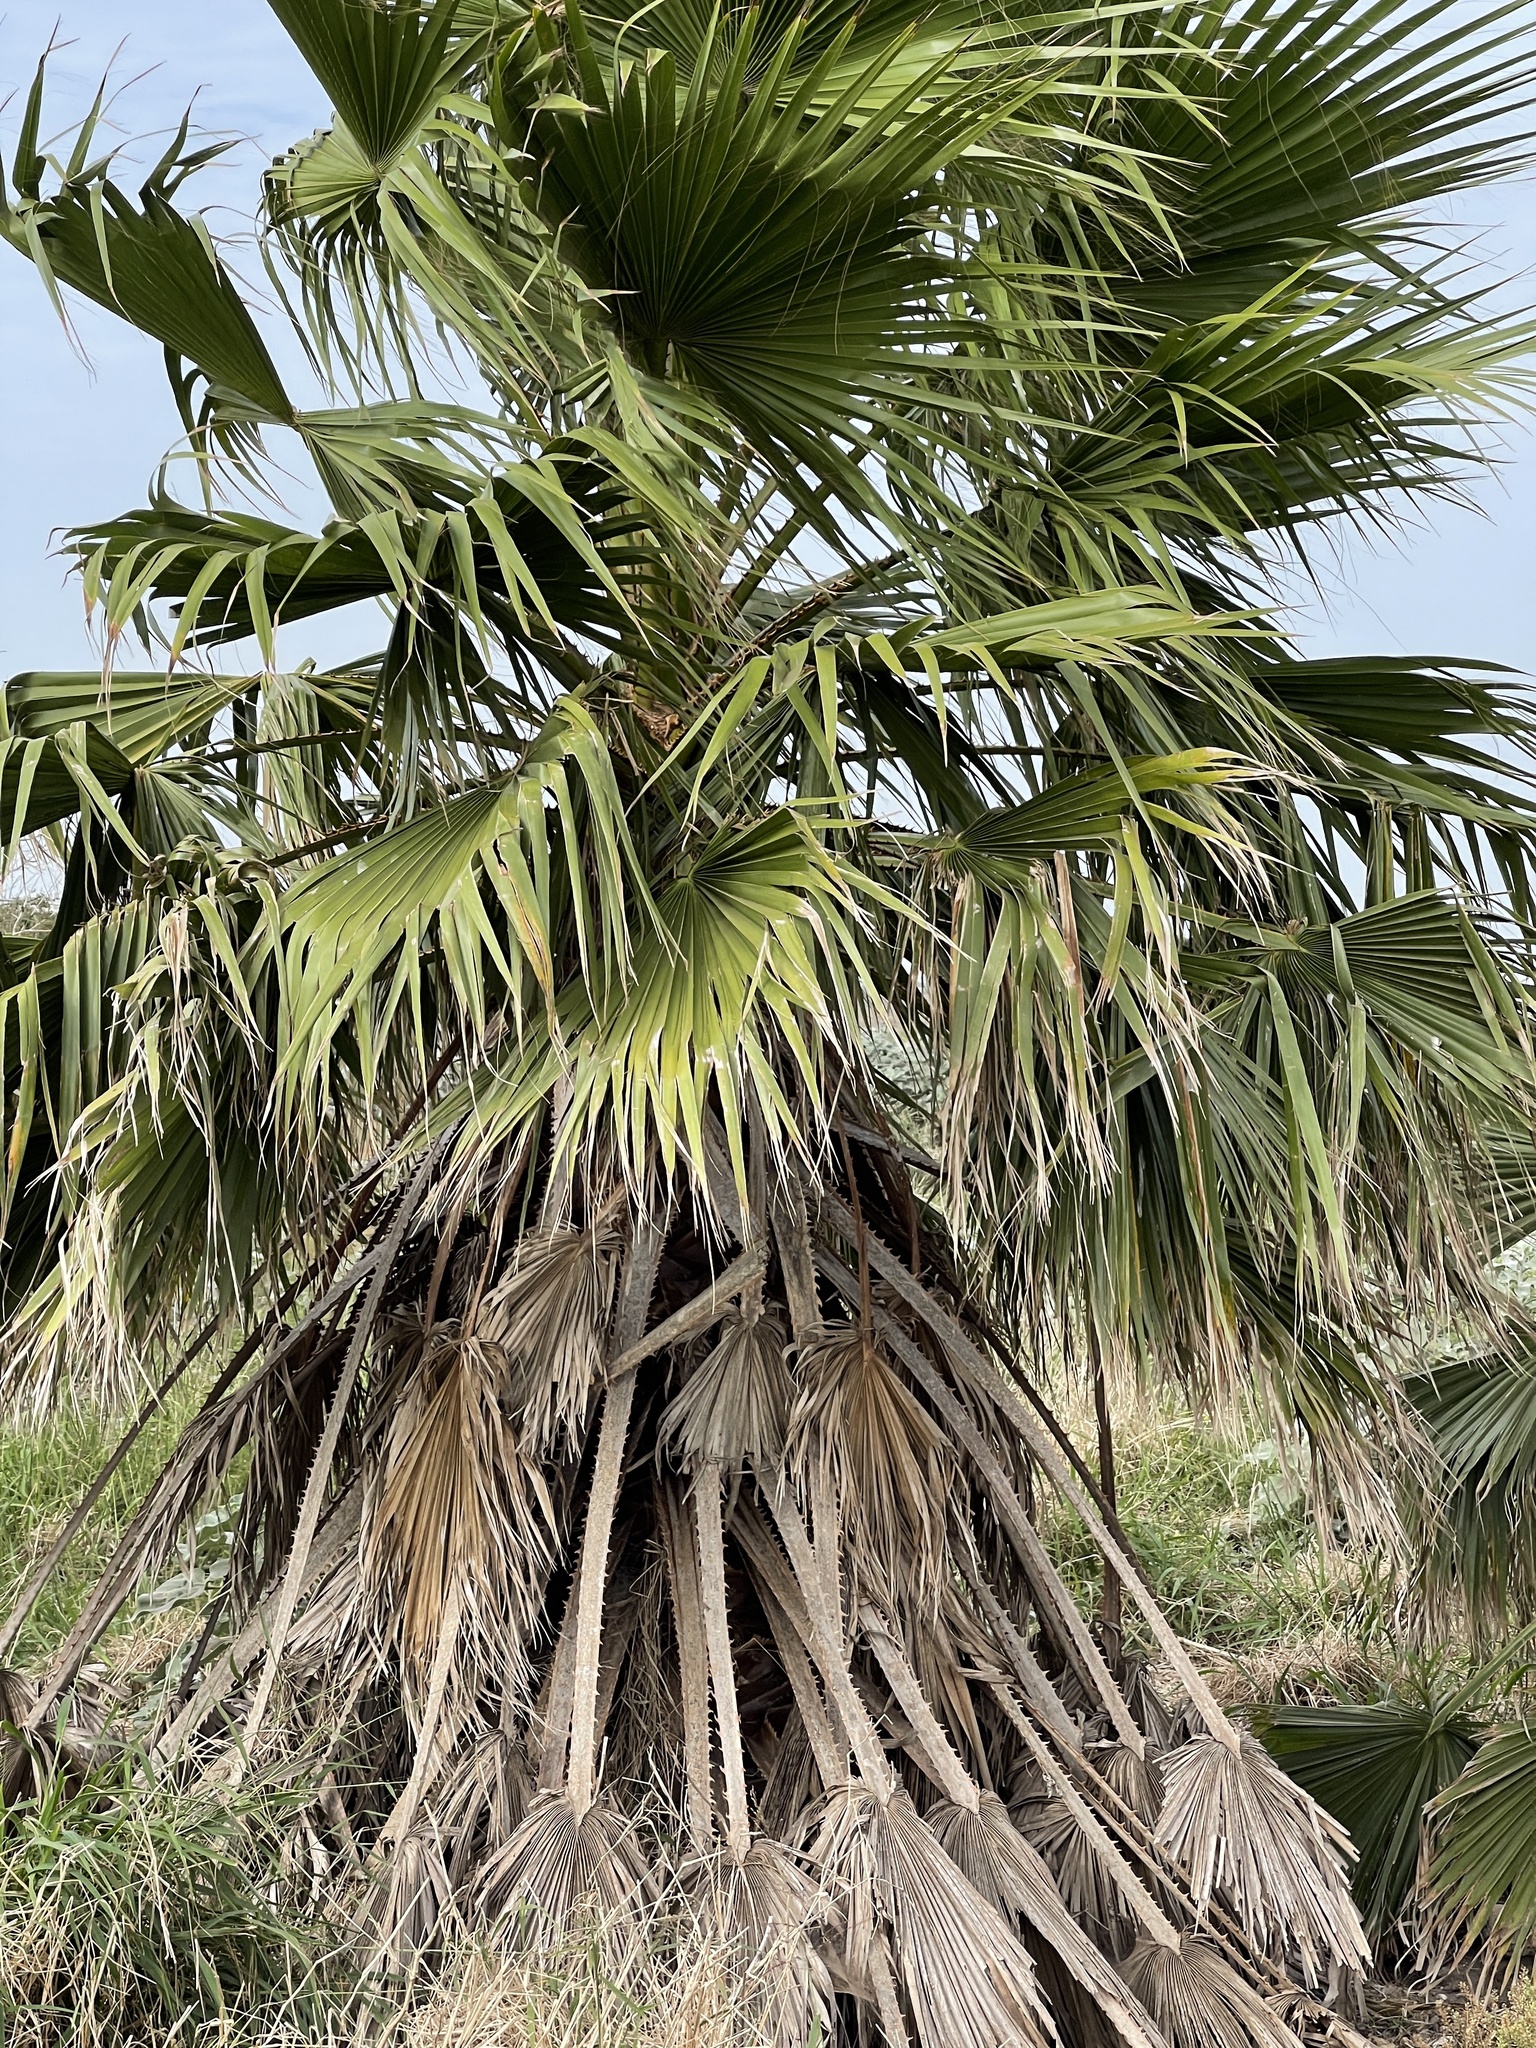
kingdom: Plantae
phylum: Tracheophyta
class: Liliopsida
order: Arecales
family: Arecaceae
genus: Washingtonia
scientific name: Washingtonia robusta
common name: Mexican fan palm
